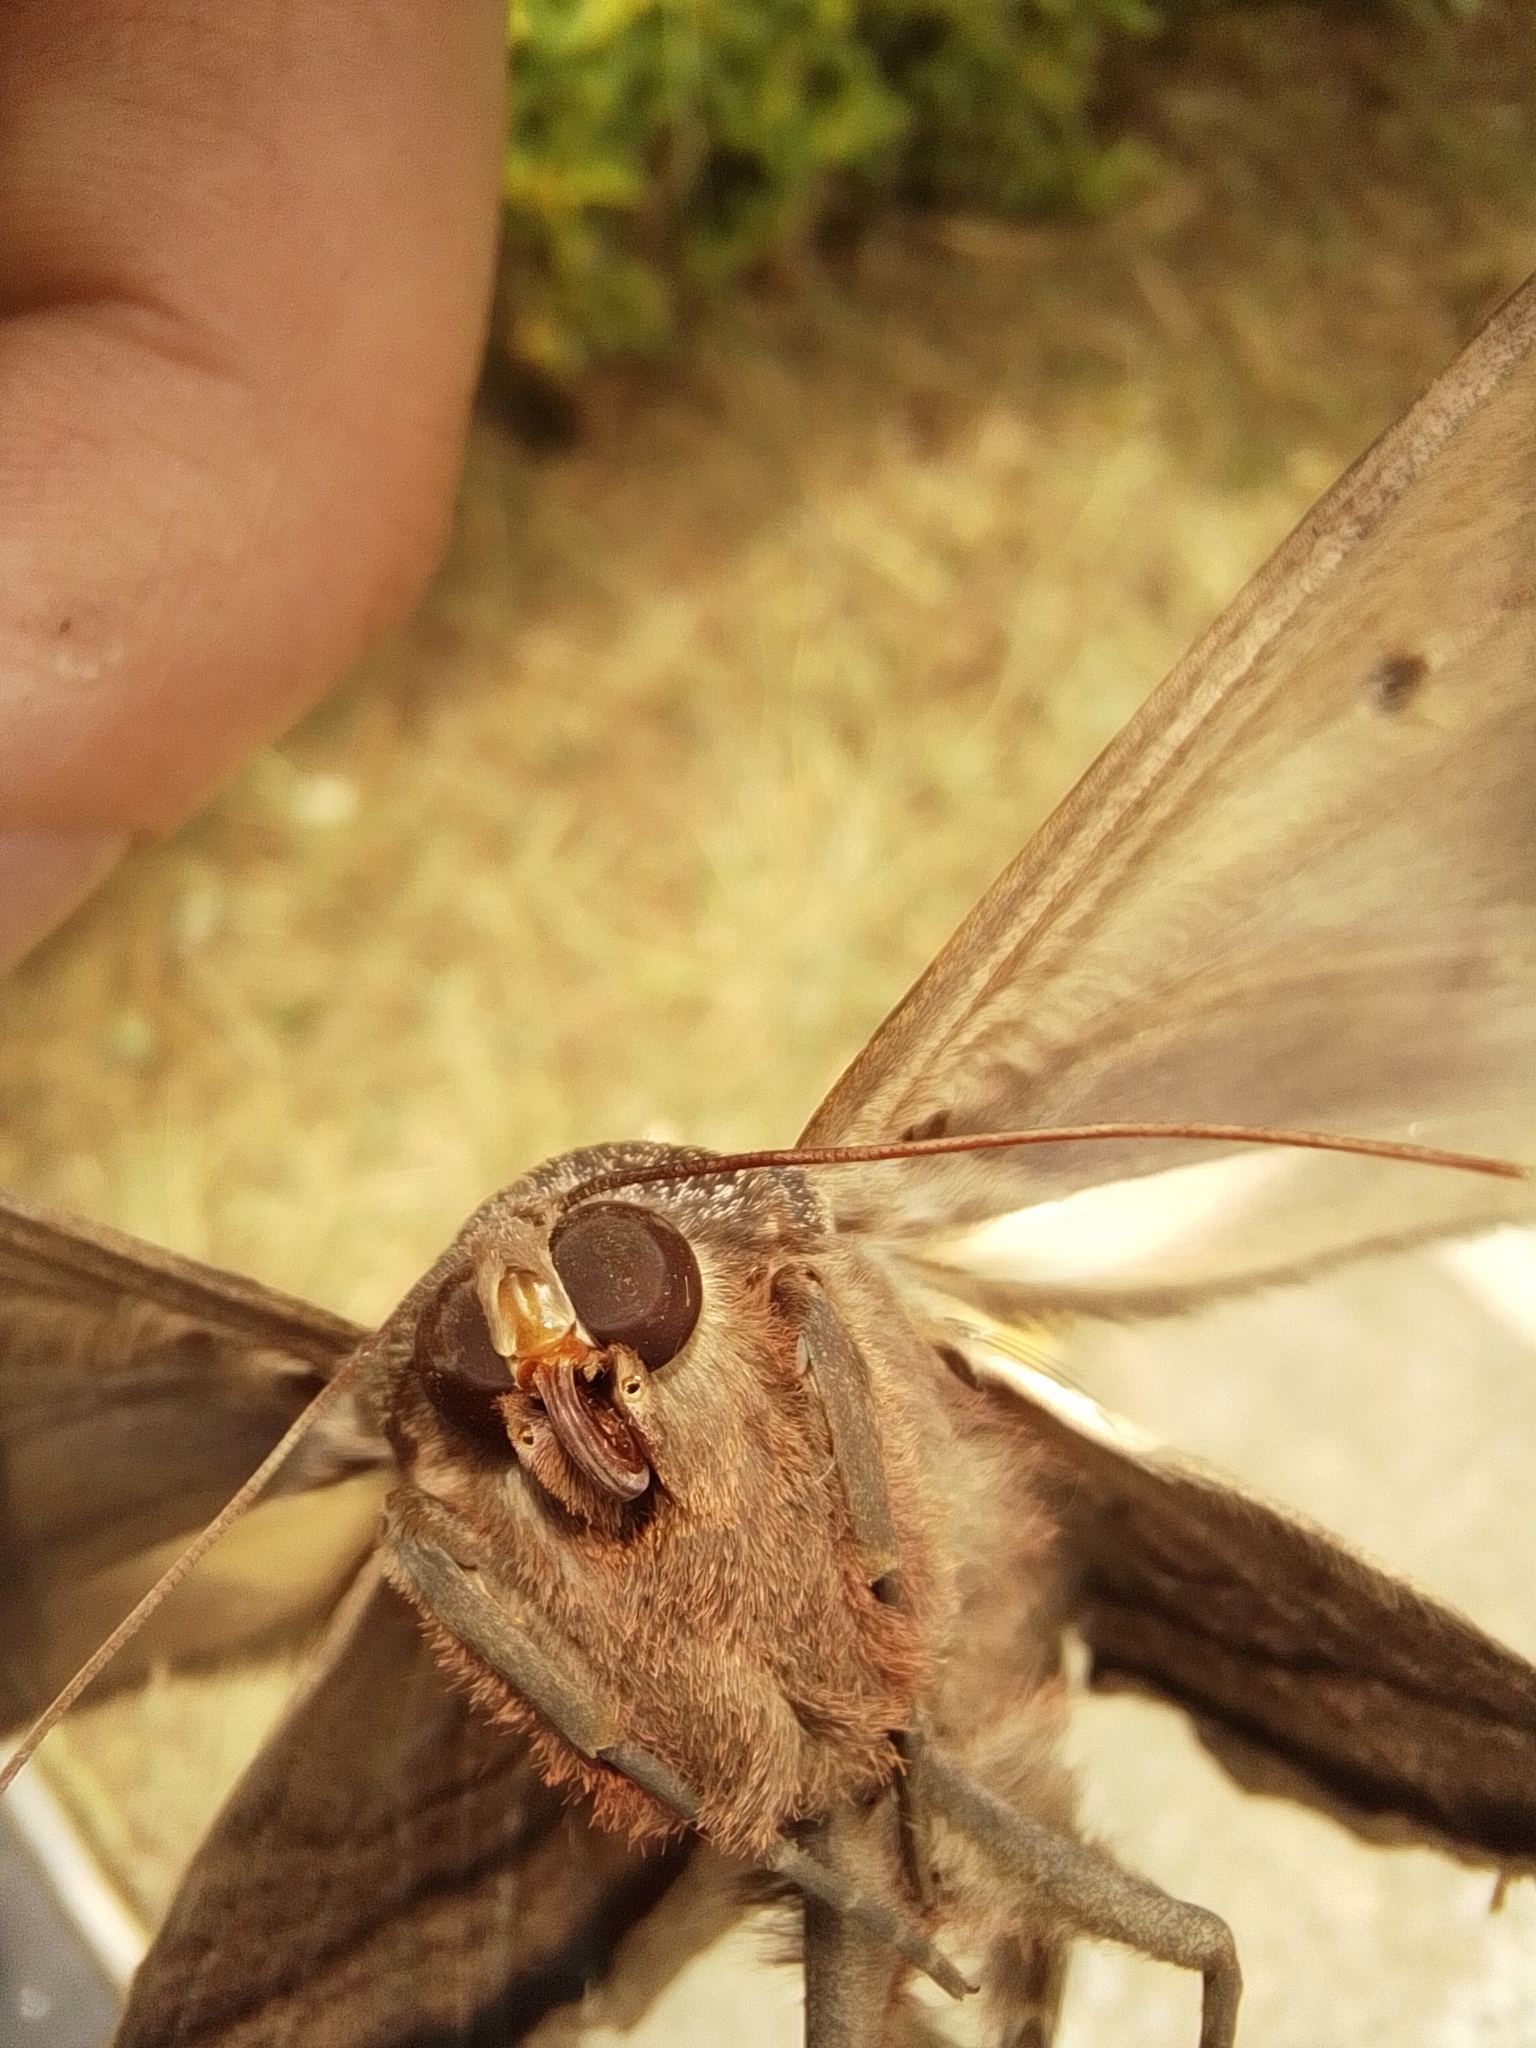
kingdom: Animalia
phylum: Arthropoda
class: Insecta
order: Lepidoptera
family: Erebidae
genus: Ascalapha
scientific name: Ascalapha odorata
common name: Black witch
